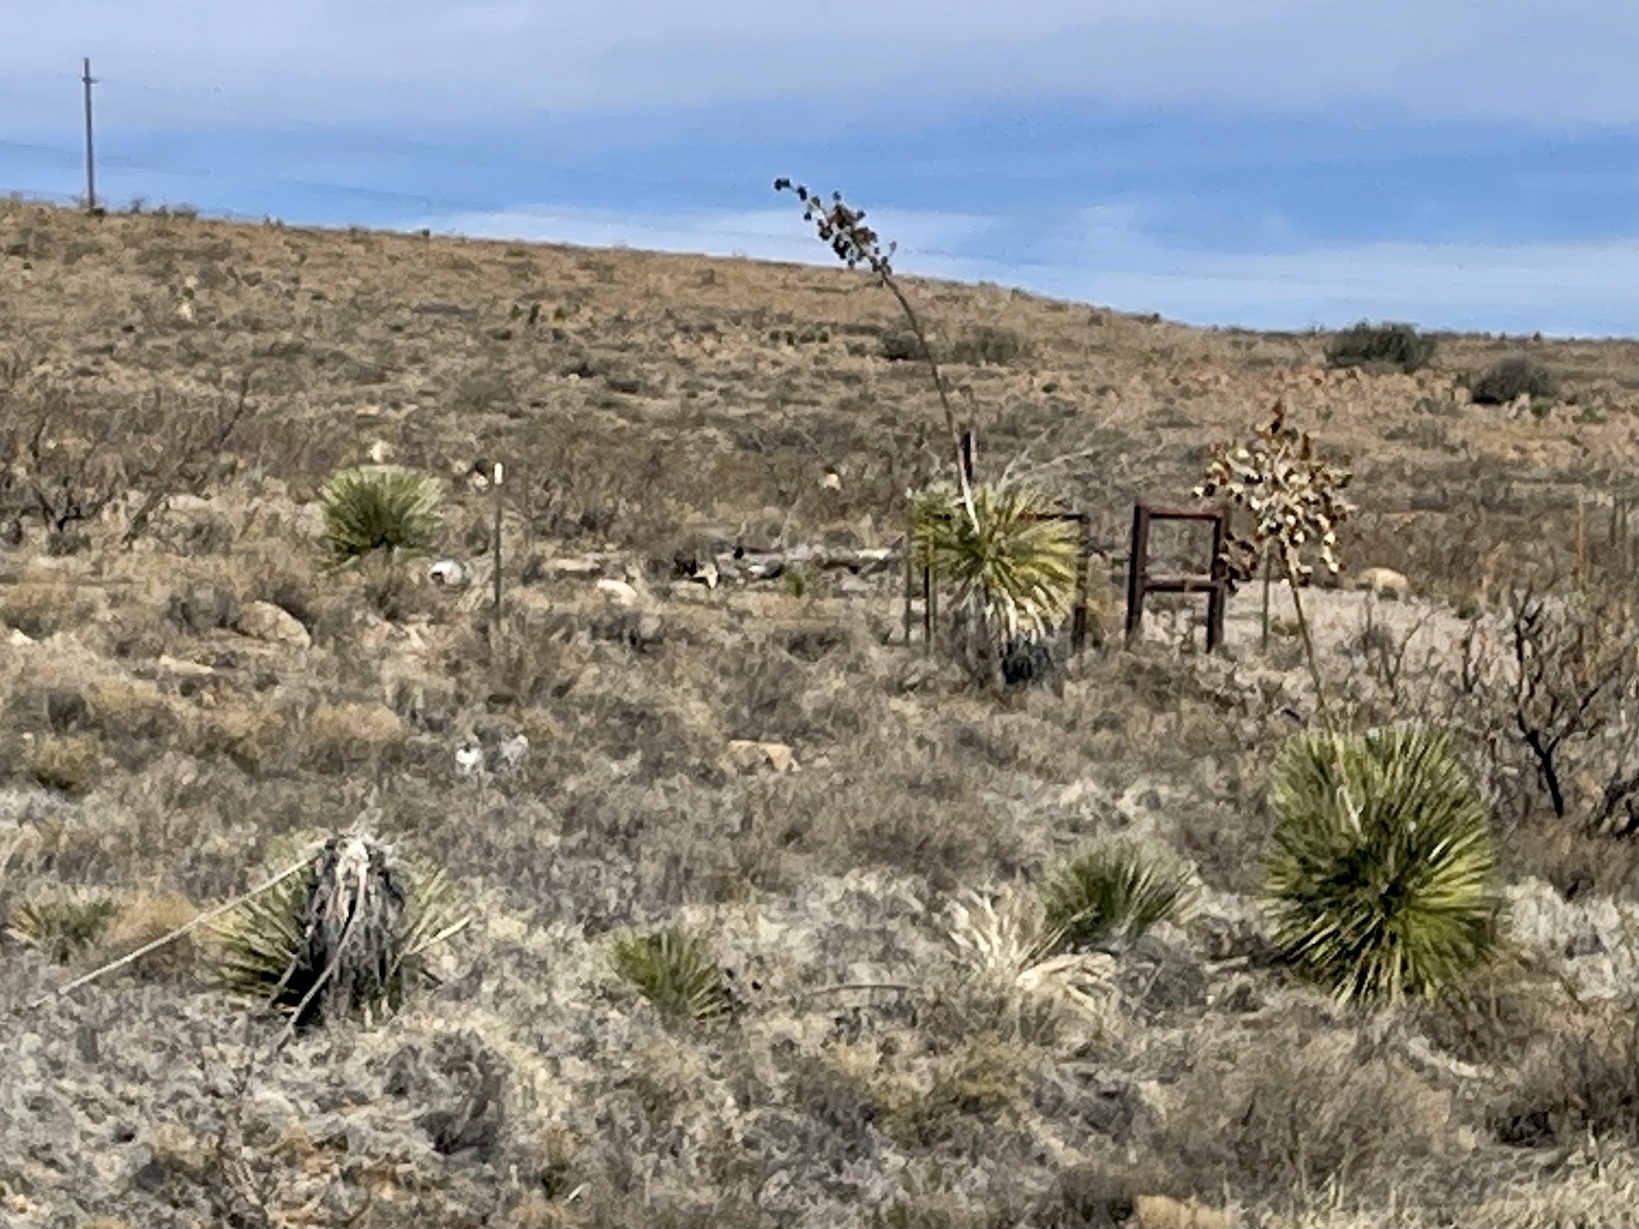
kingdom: Plantae
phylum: Tracheophyta
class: Liliopsida
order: Asparagales
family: Asparagaceae
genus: Yucca
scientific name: Yucca elata
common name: Palmella
